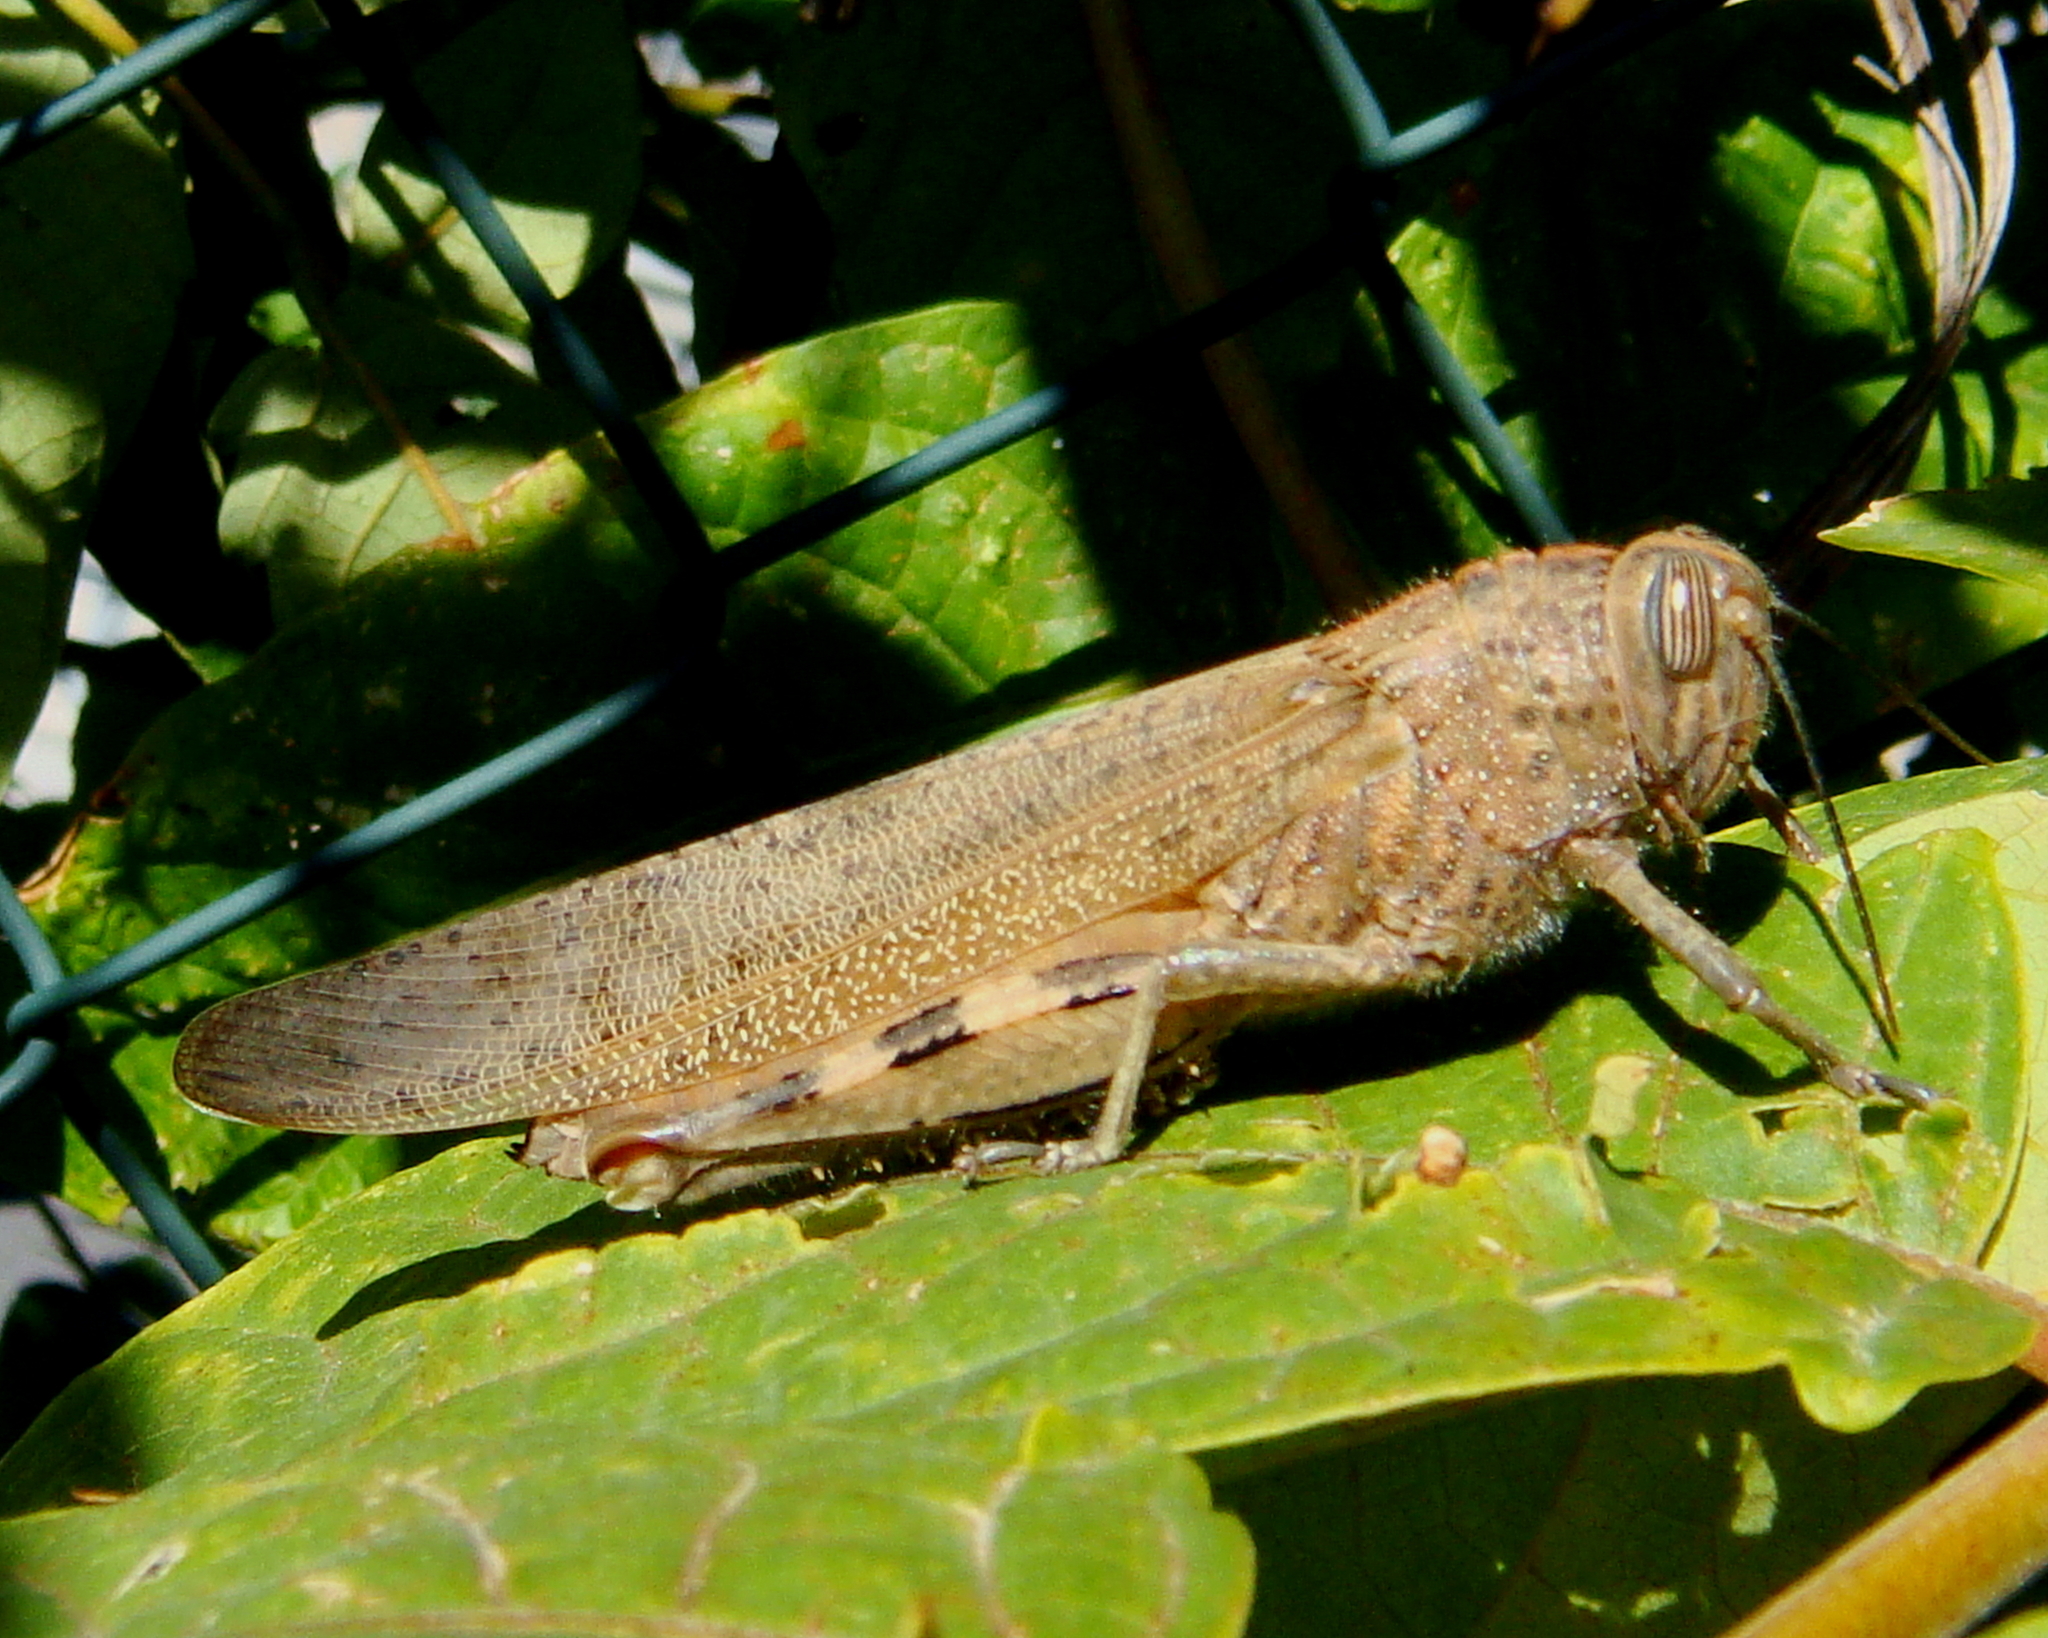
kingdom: Animalia
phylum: Arthropoda
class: Insecta
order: Orthoptera
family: Acrididae
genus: Anacridium
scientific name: Anacridium aegyptium
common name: Egyptian grasshopper
